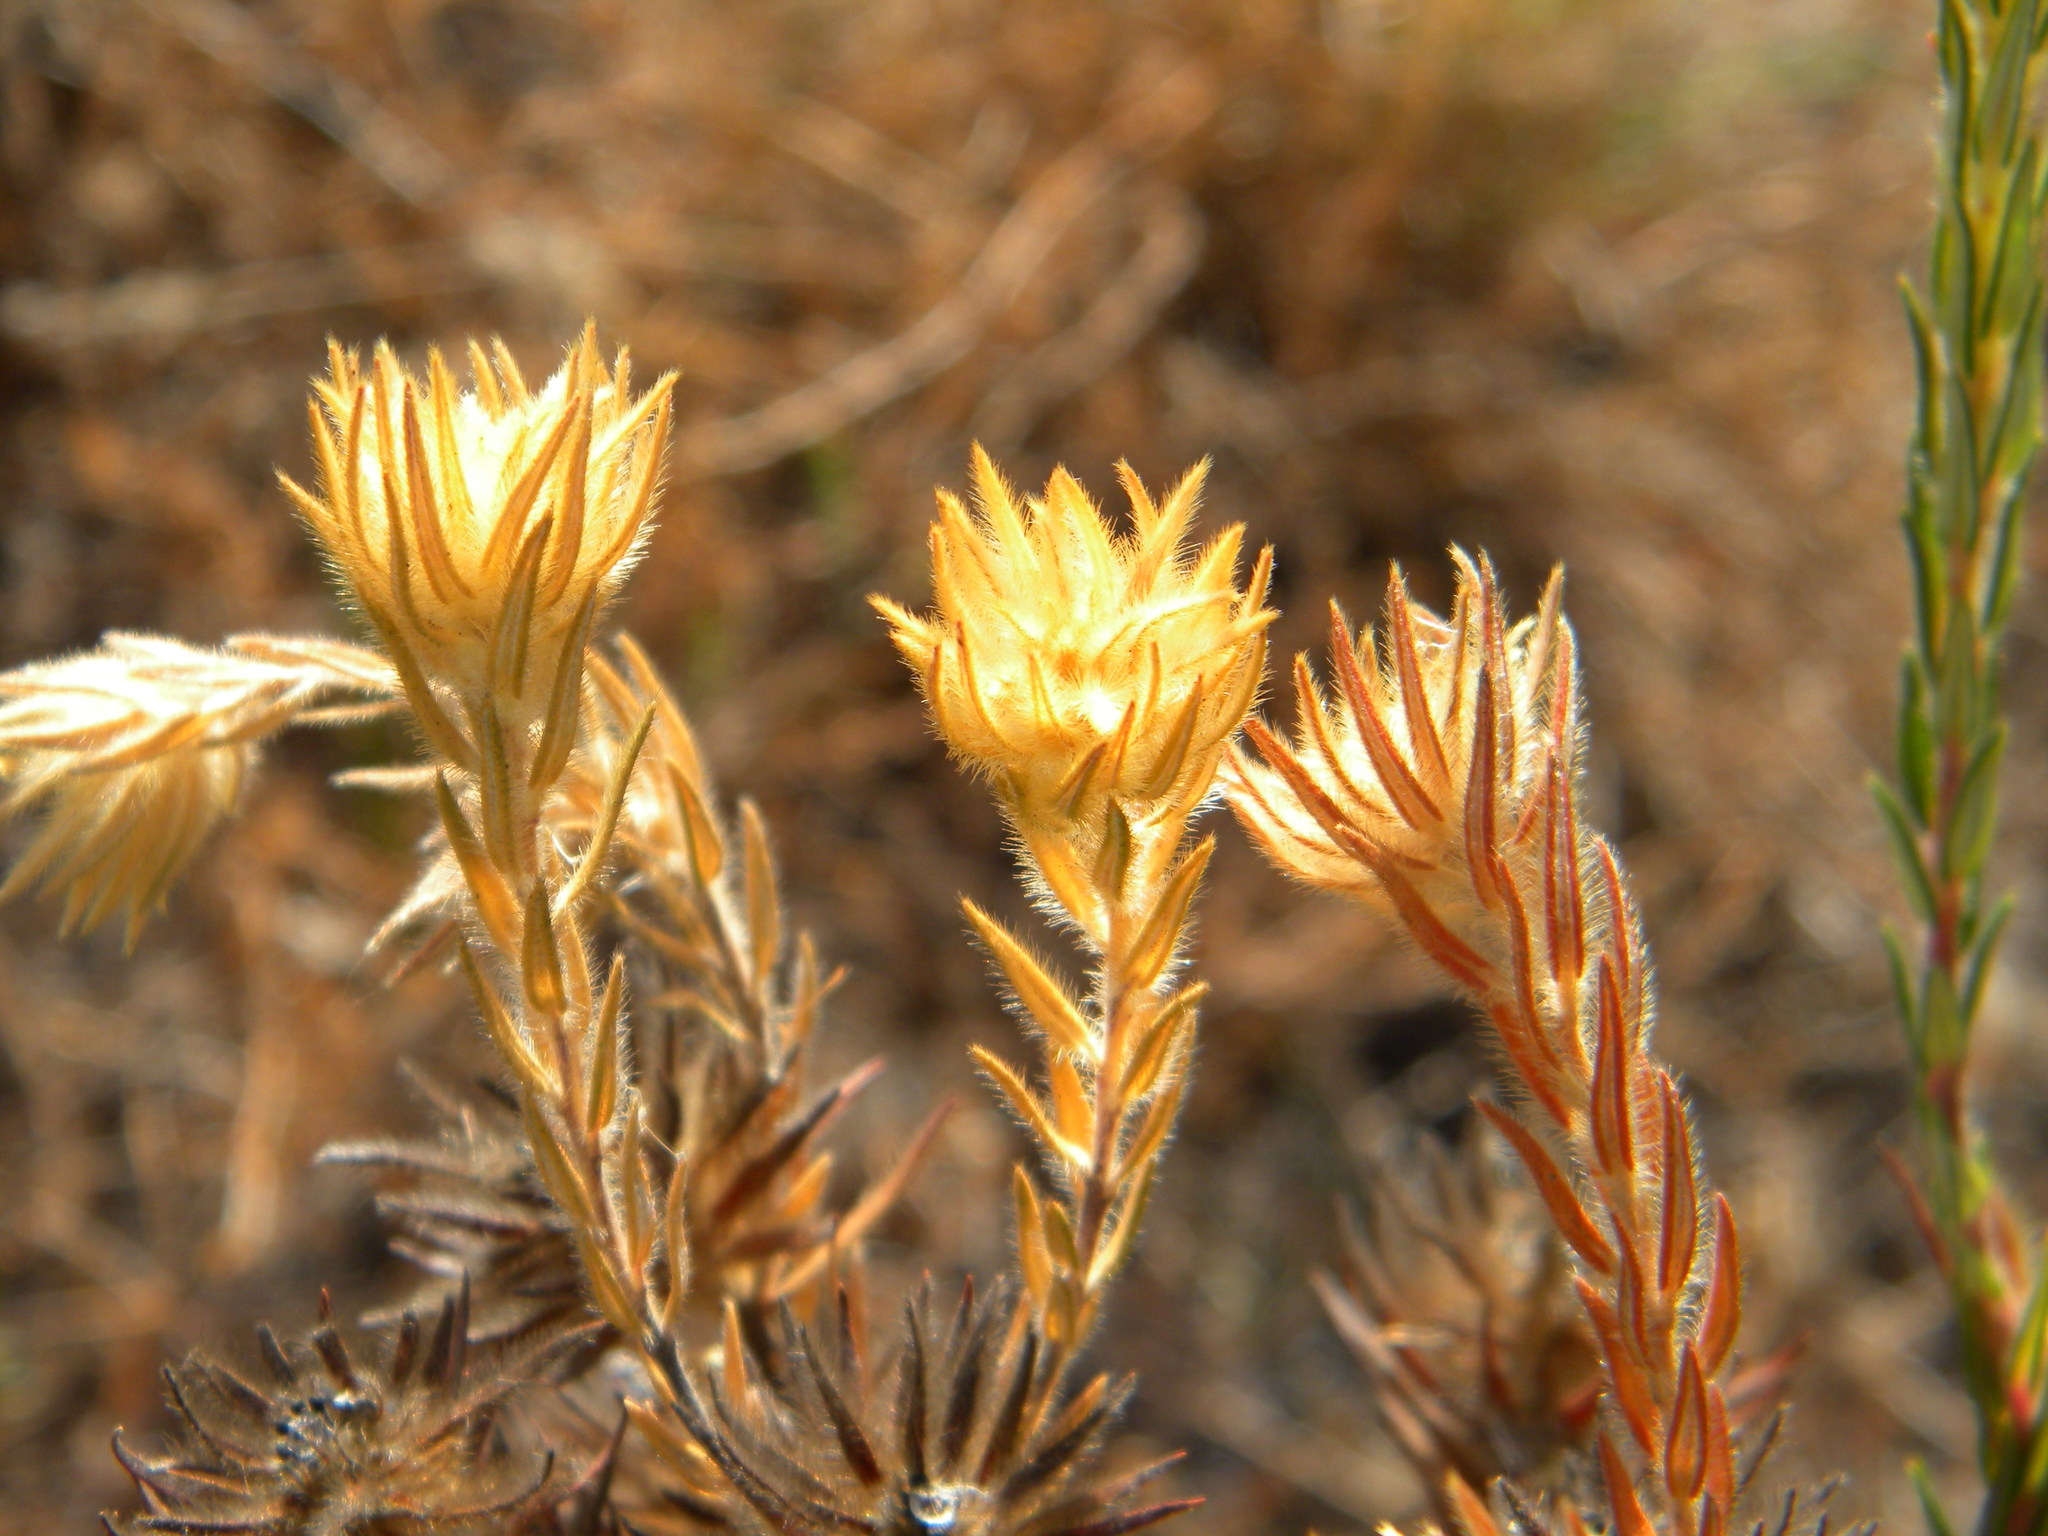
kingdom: Plantae
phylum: Tracheophyta
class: Magnoliopsida
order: Rosales
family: Rhamnaceae
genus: Phylica
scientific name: Phylica pubescens
